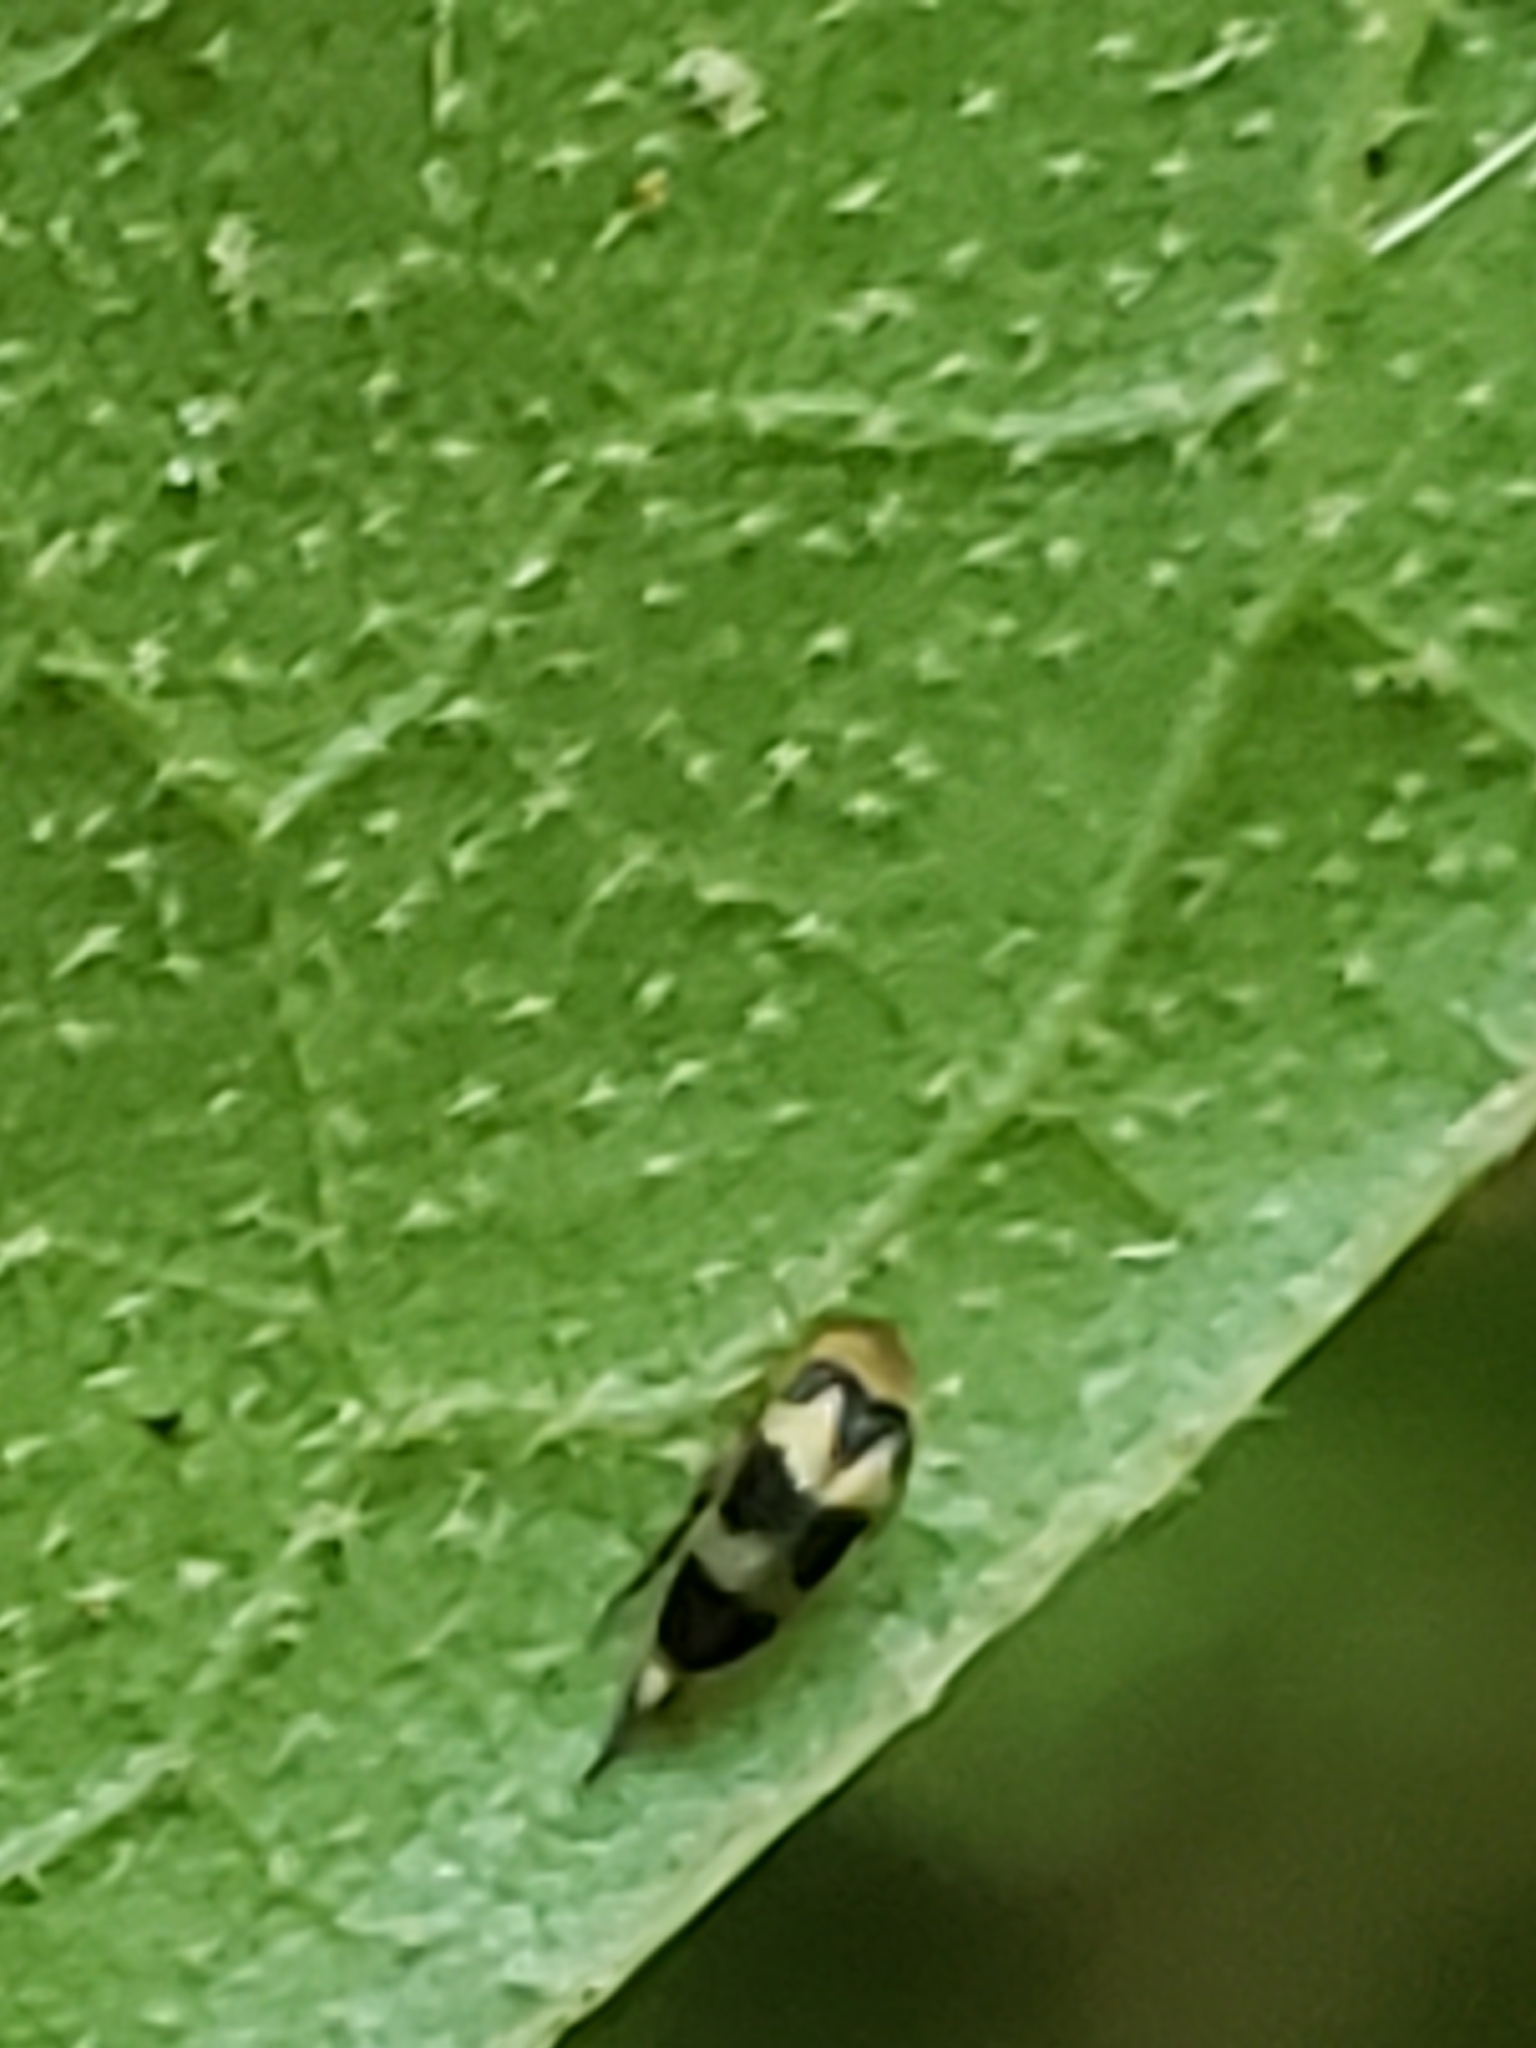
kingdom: Animalia
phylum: Arthropoda
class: Insecta
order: Coleoptera
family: Mordellidae
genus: Mordellistena
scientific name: Mordellistena trifasciata
